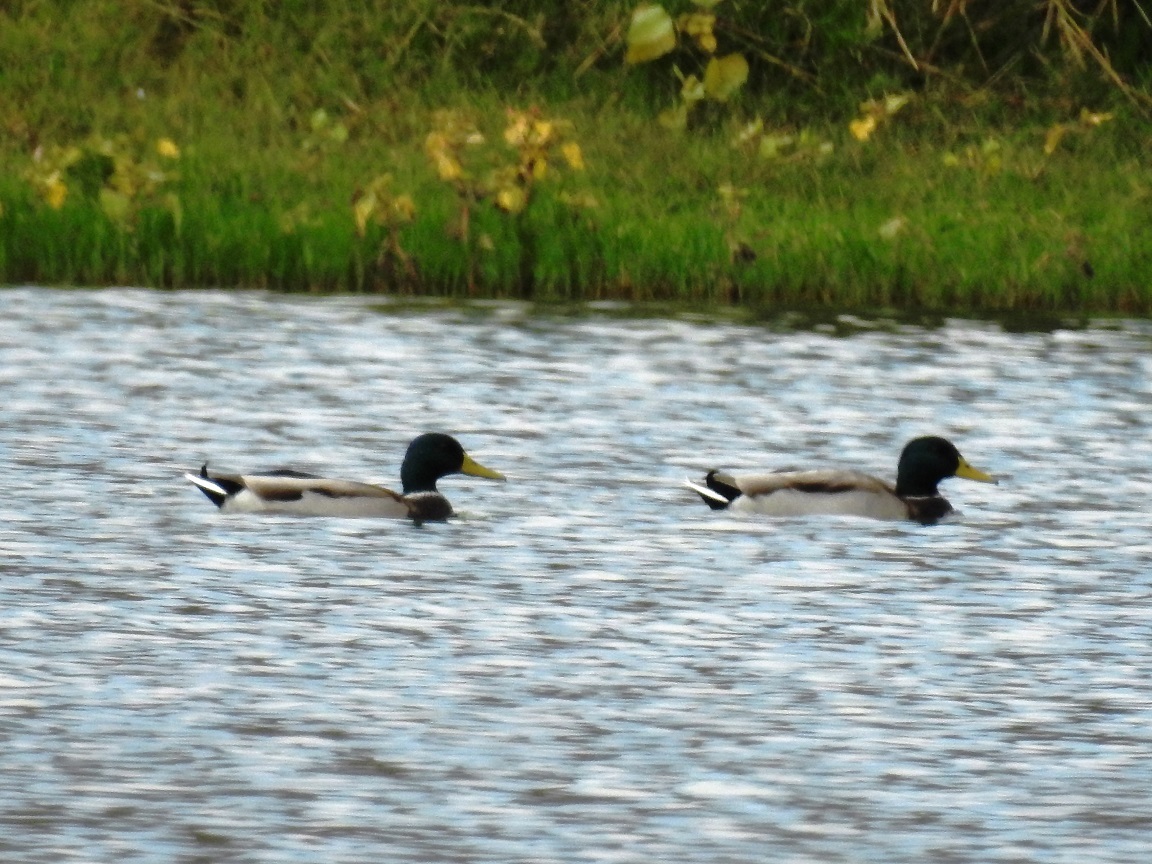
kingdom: Animalia
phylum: Chordata
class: Aves
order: Anseriformes
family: Anatidae
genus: Anas
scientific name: Anas platyrhynchos
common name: Mallard
